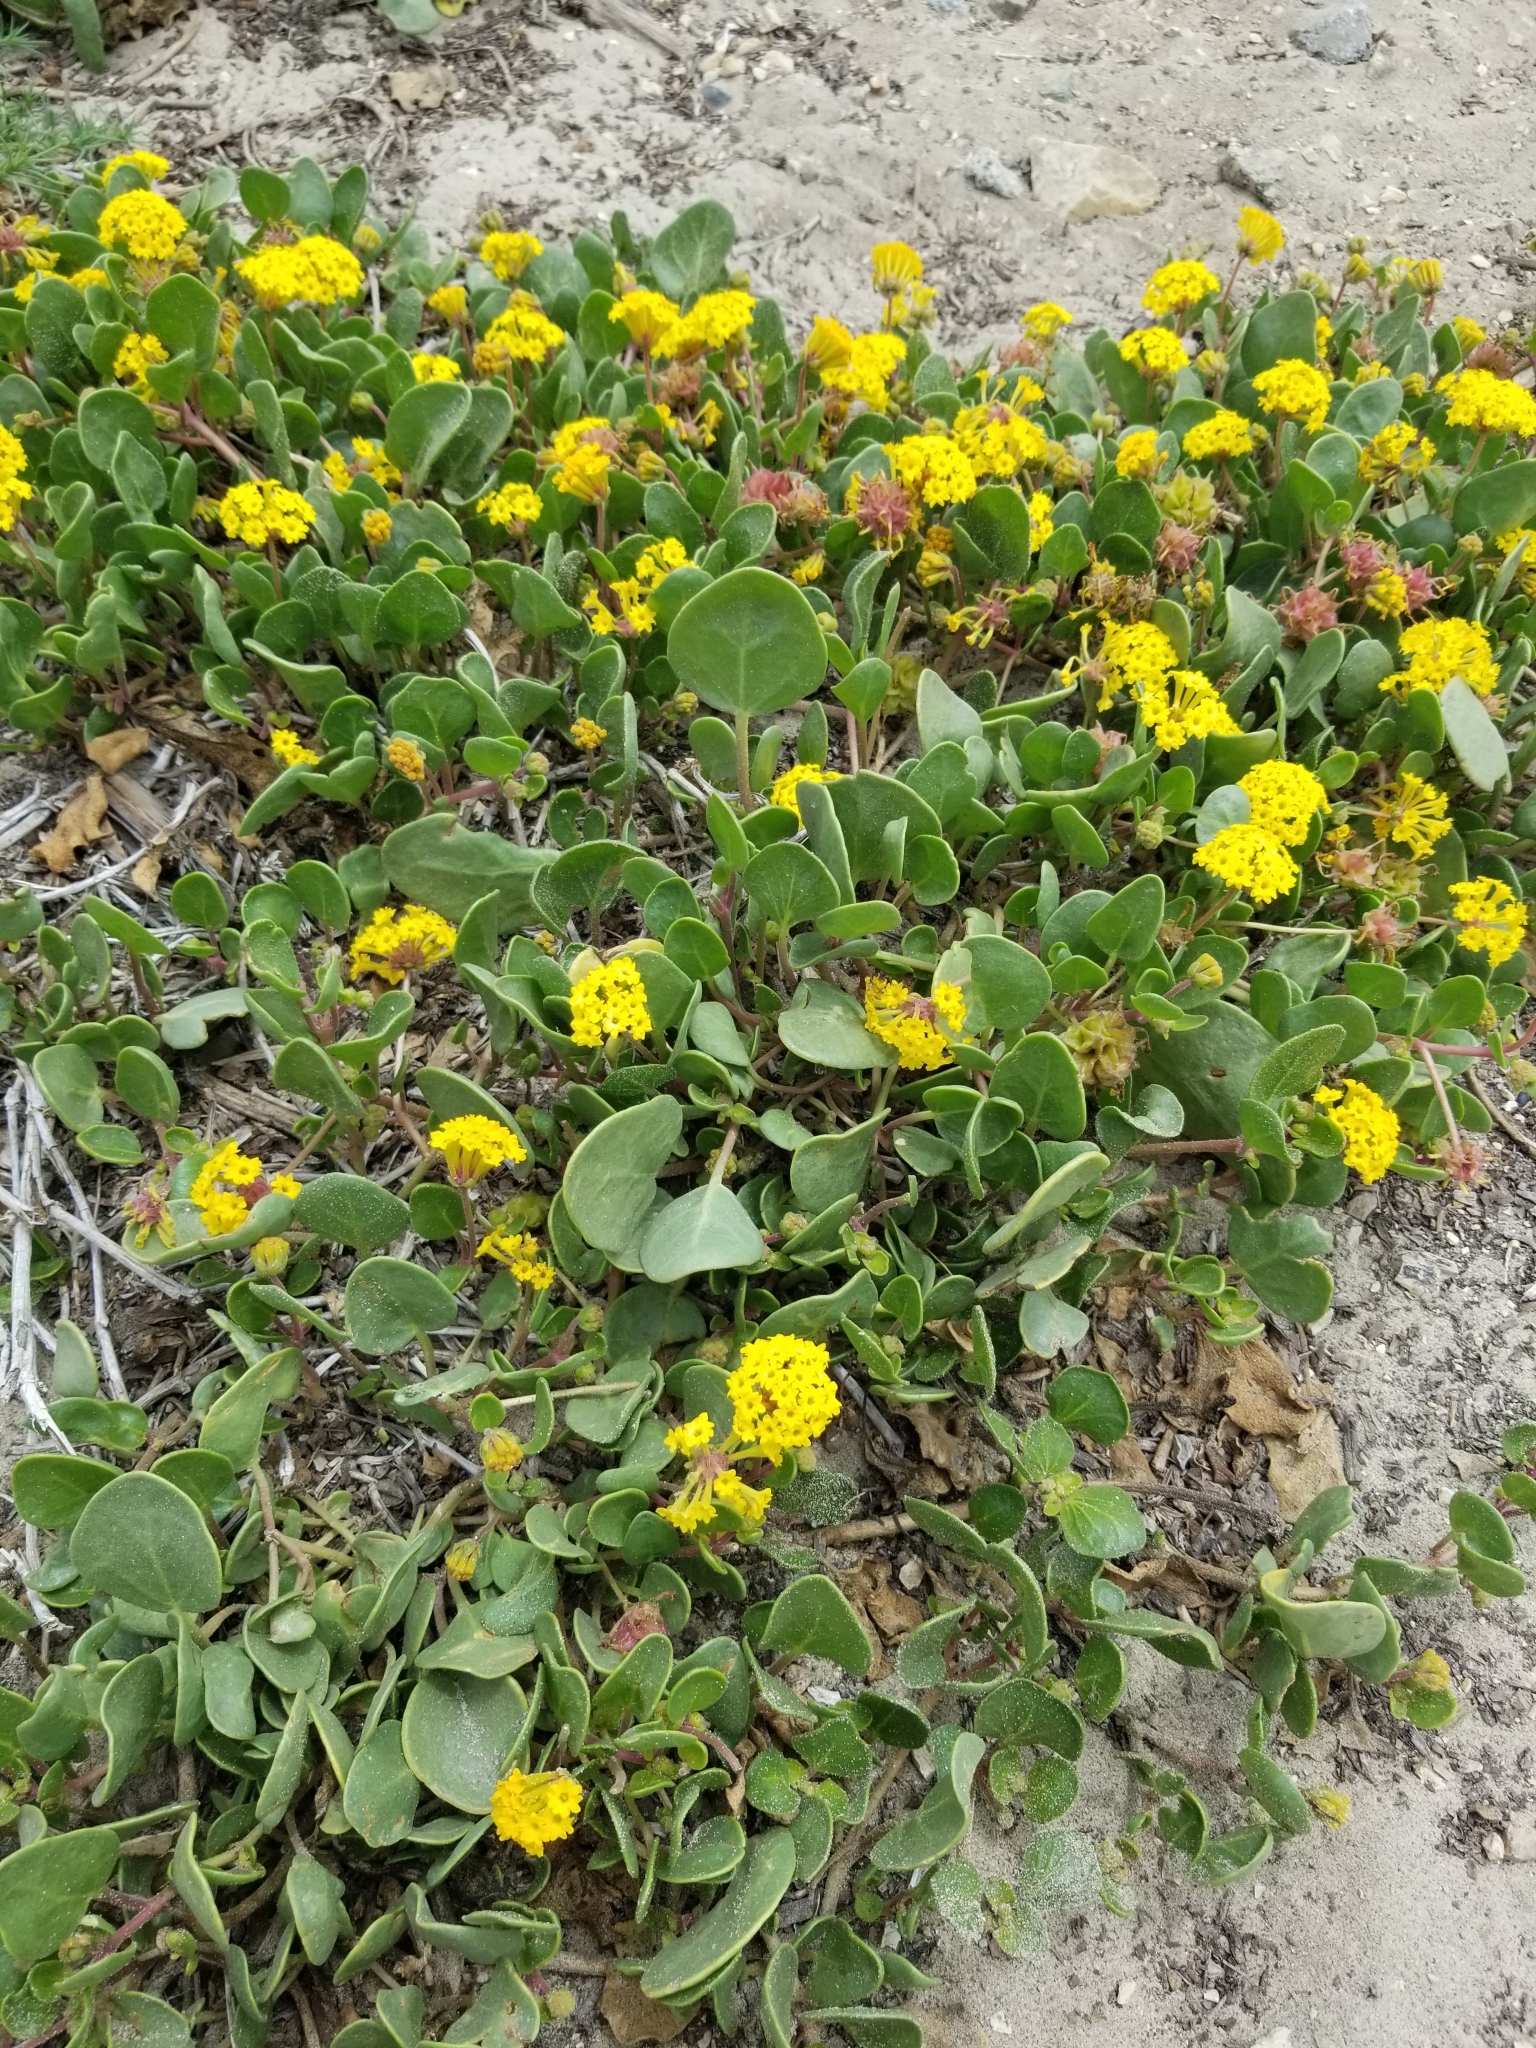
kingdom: Plantae
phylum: Tracheophyta
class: Magnoliopsida
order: Caryophyllales
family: Nyctaginaceae
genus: Abronia
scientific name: Abronia latifolia
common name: Yellow sand-verbena
